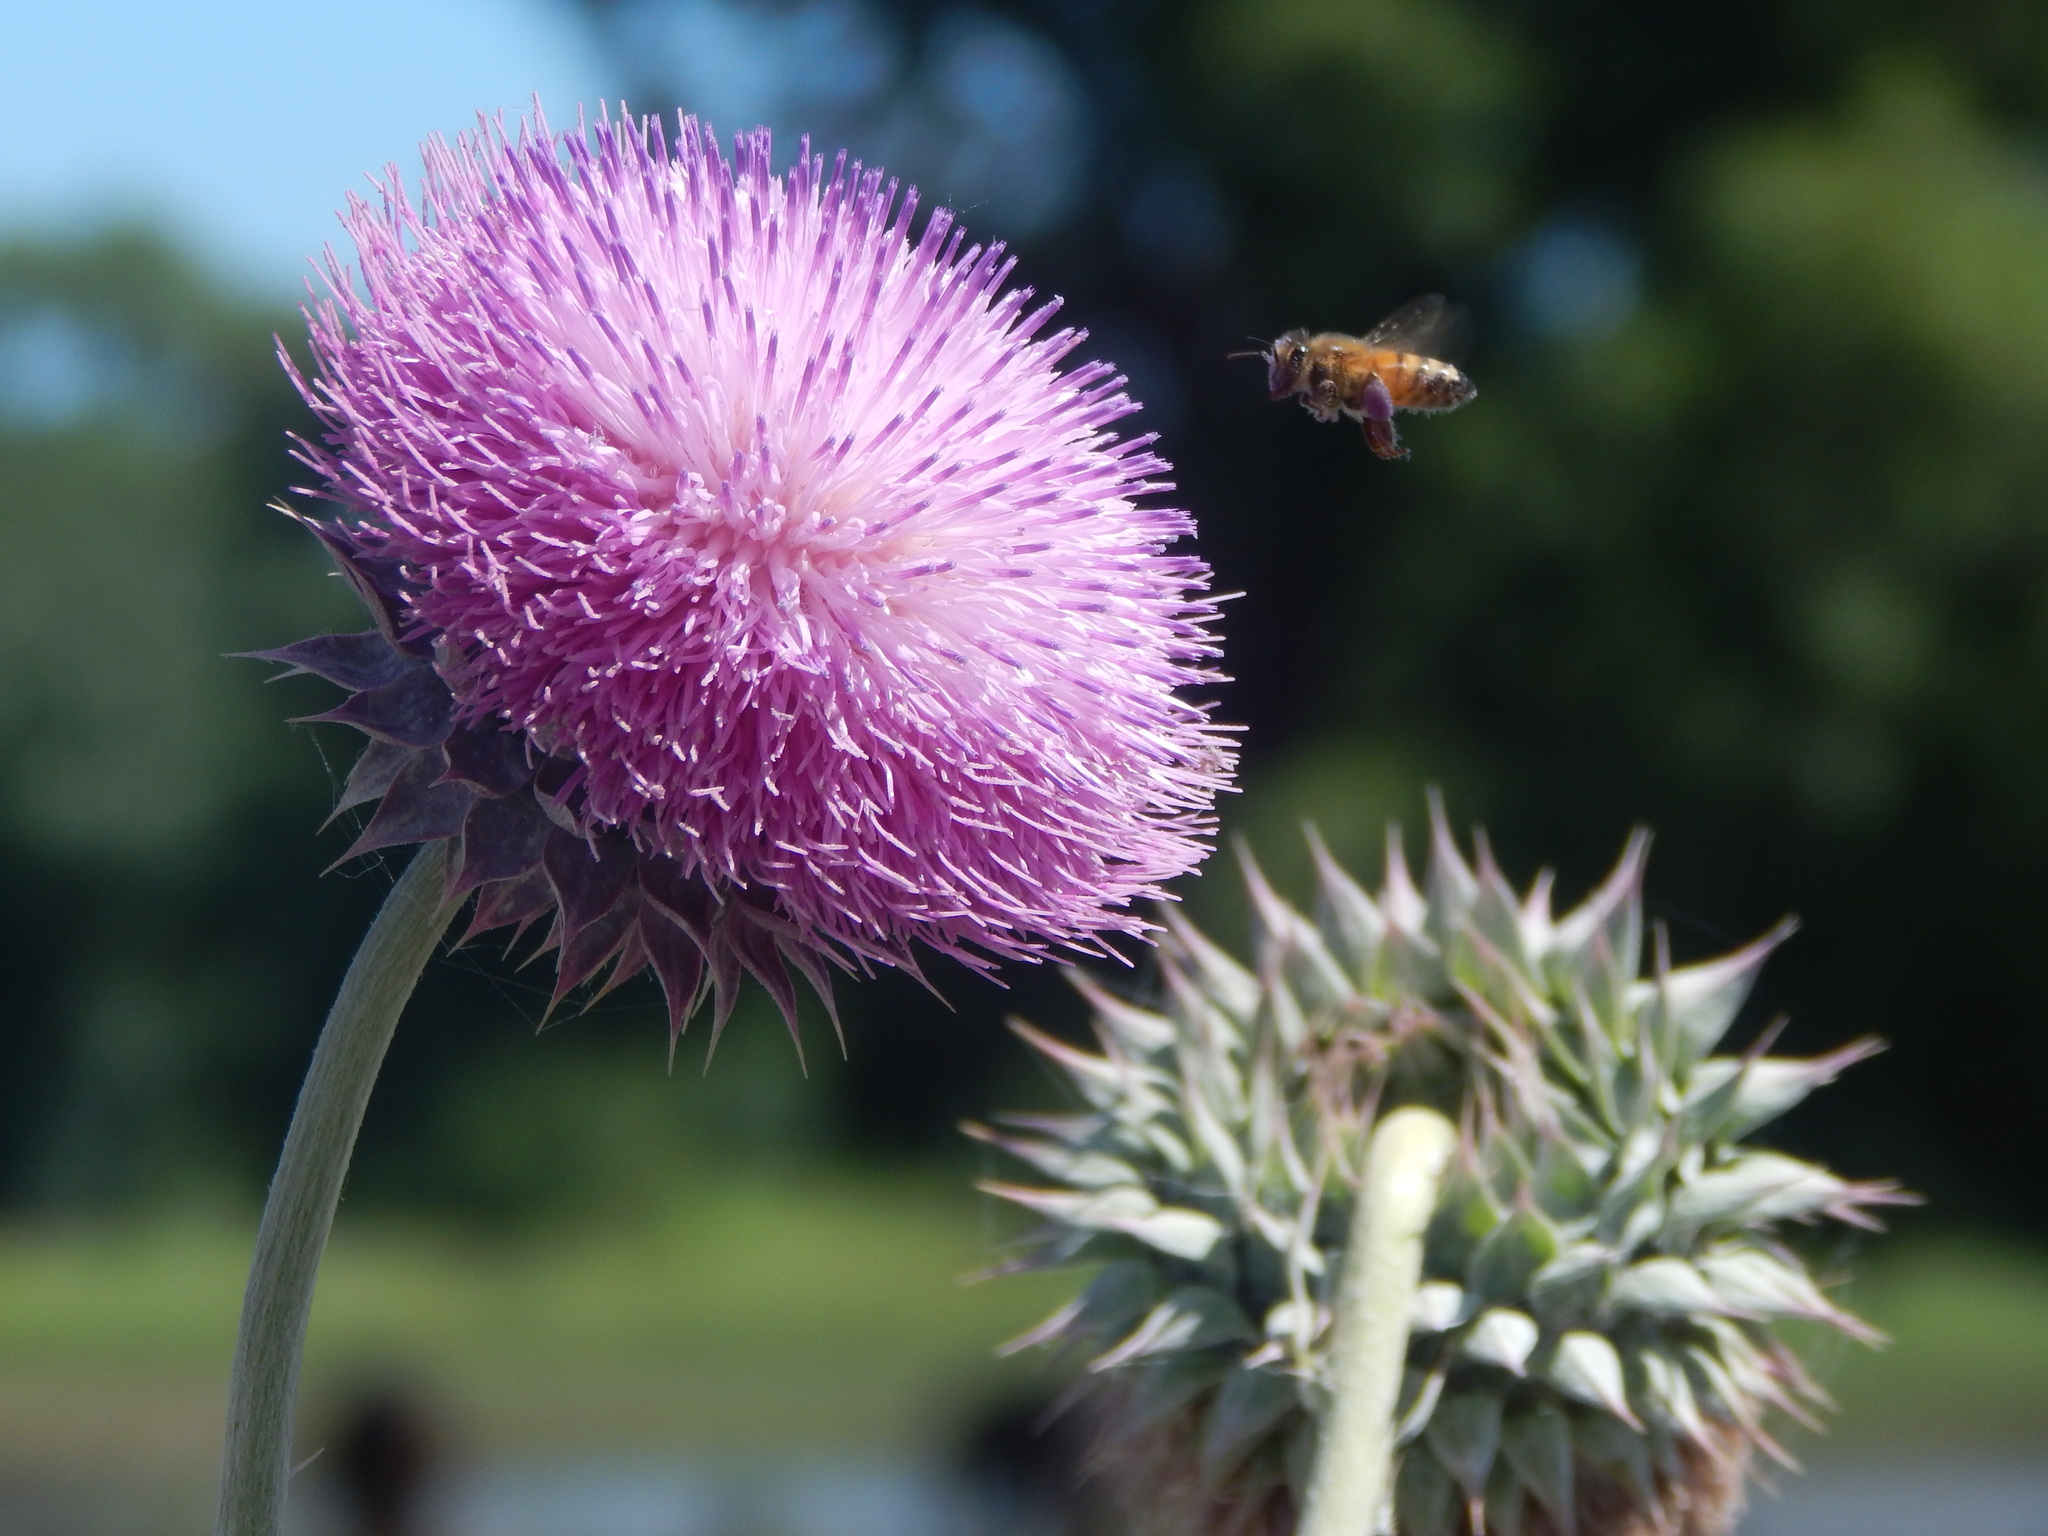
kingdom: Plantae
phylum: Tracheophyta
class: Magnoliopsida
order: Asterales
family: Asteraceae
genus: Cirsium
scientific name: Cirsium texanum
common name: Texas purple thistle
